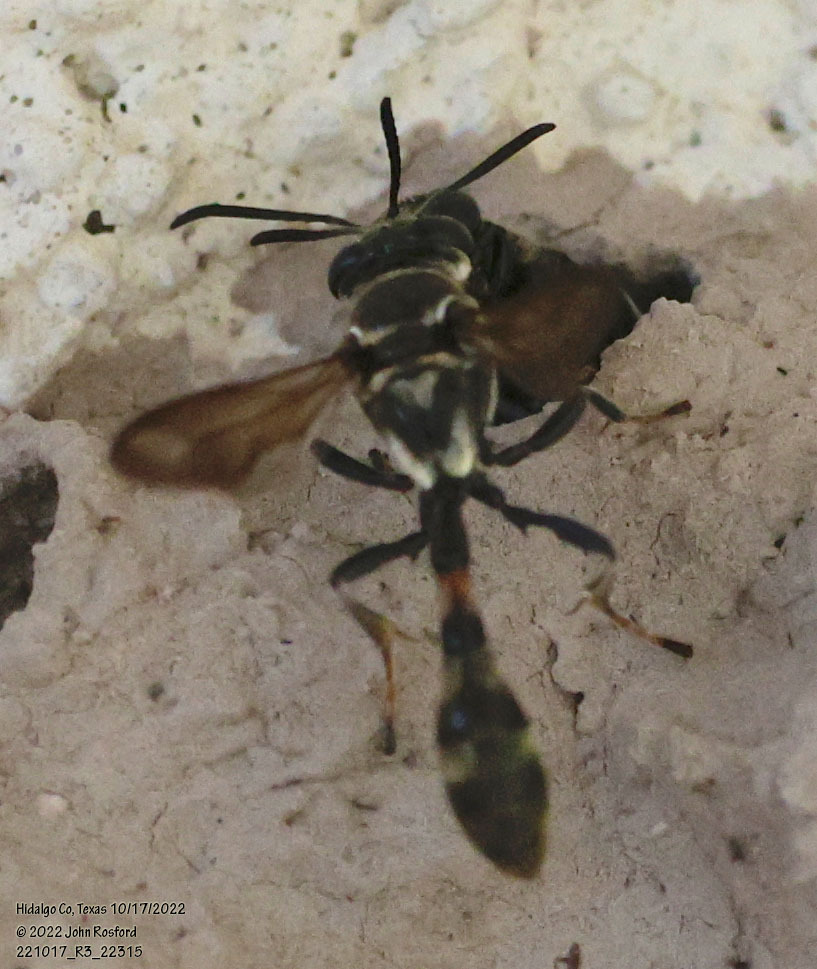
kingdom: Animalia
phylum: Arthropoda
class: Insecta
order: Hymenoptera
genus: Trypargilum
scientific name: Trypargilum
